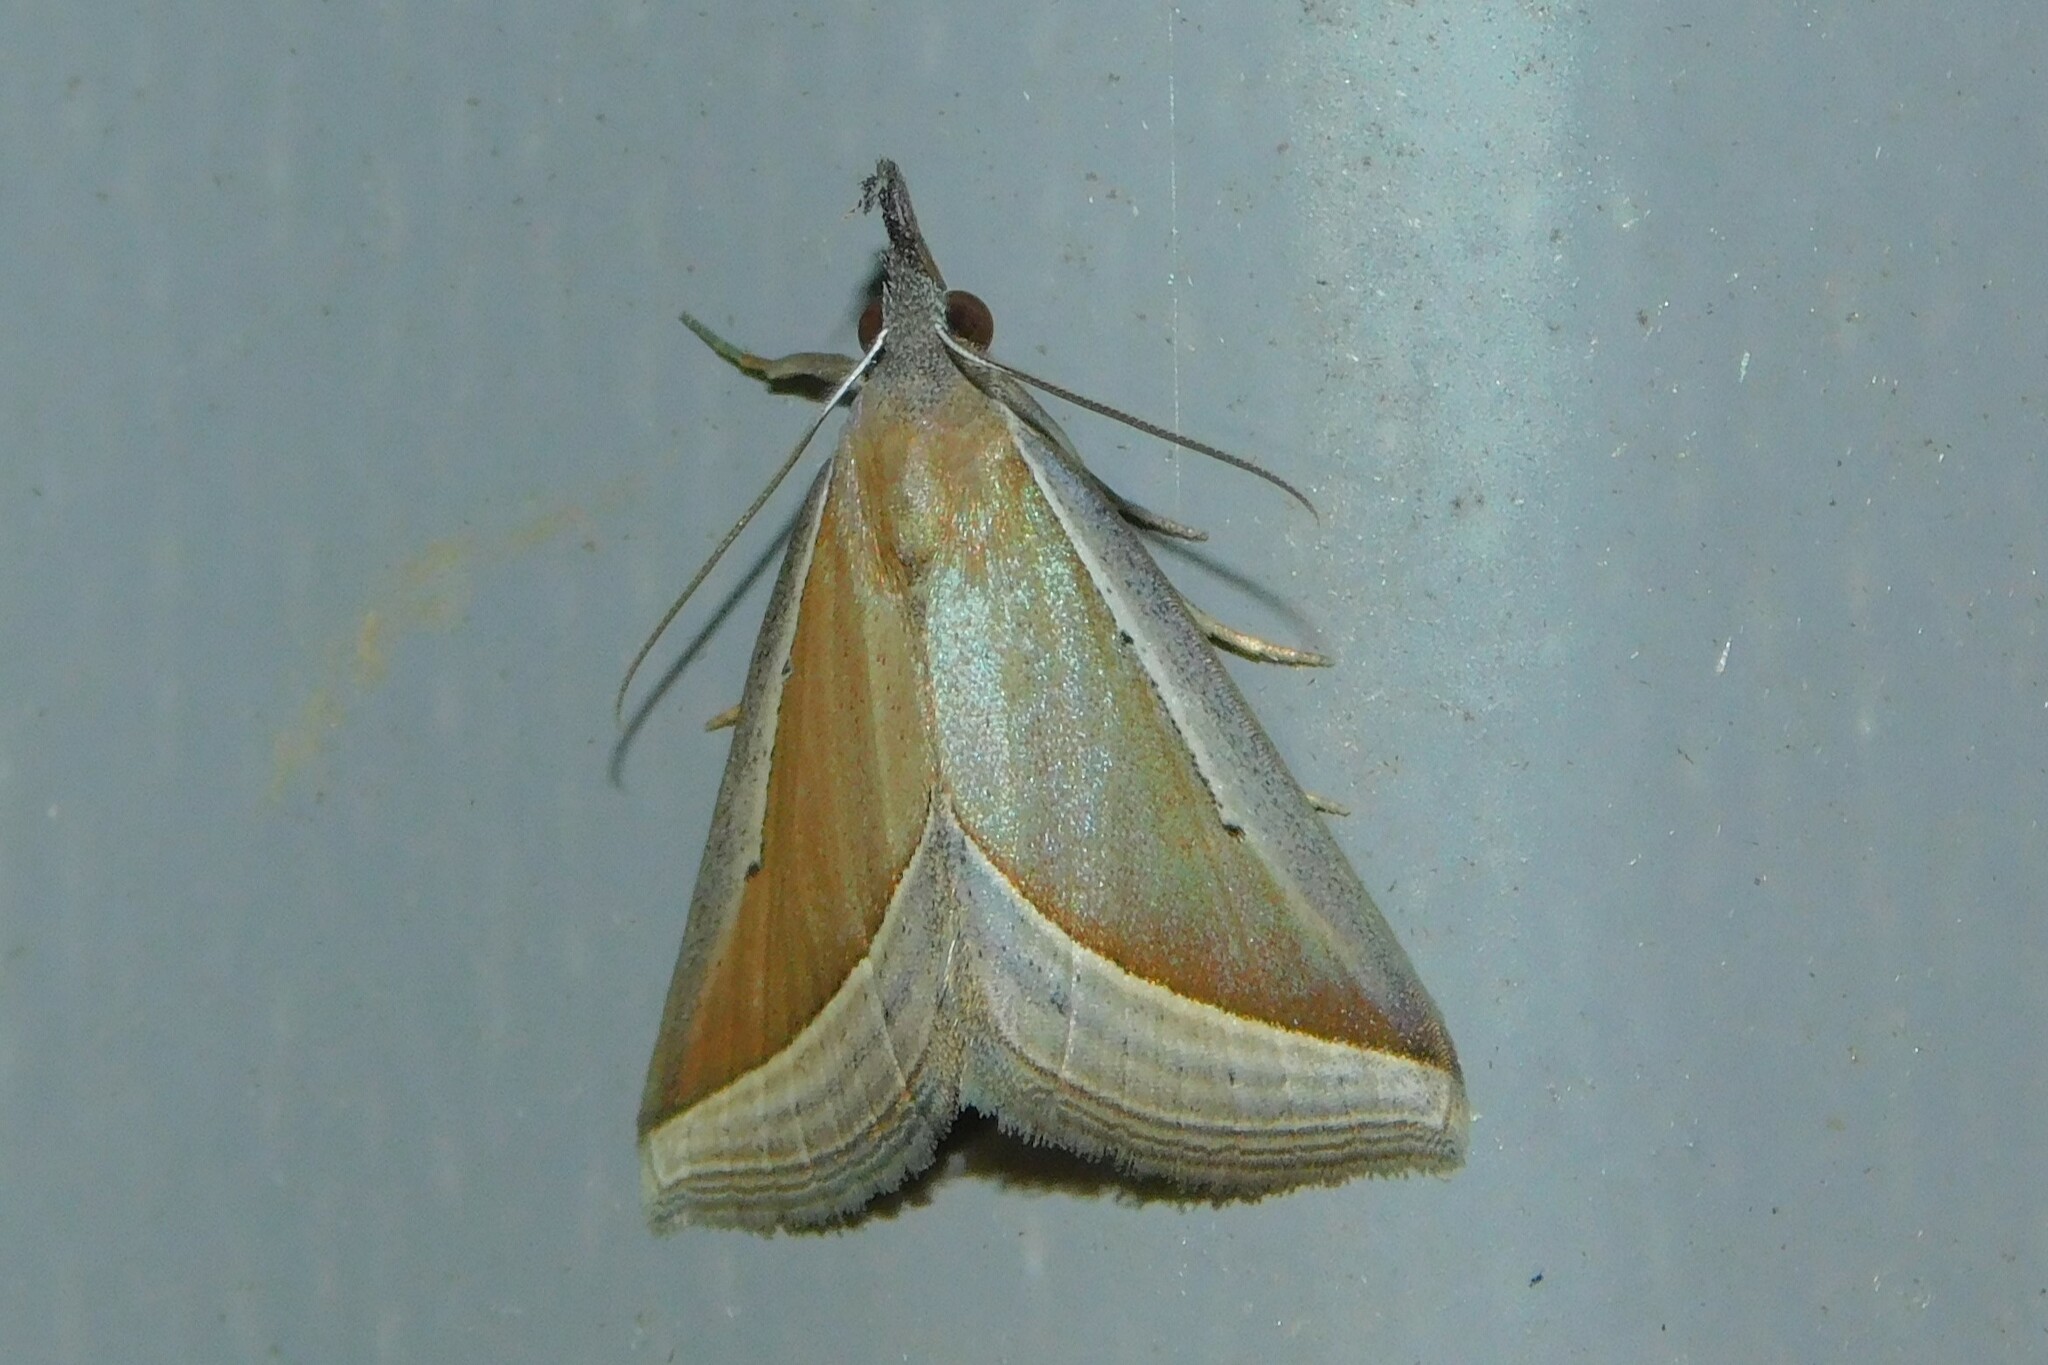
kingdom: Animalia
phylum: Arthropoda
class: Insecta
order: Lepidoptera
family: Erebidae
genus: Hypena
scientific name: Hypena conscitalis
